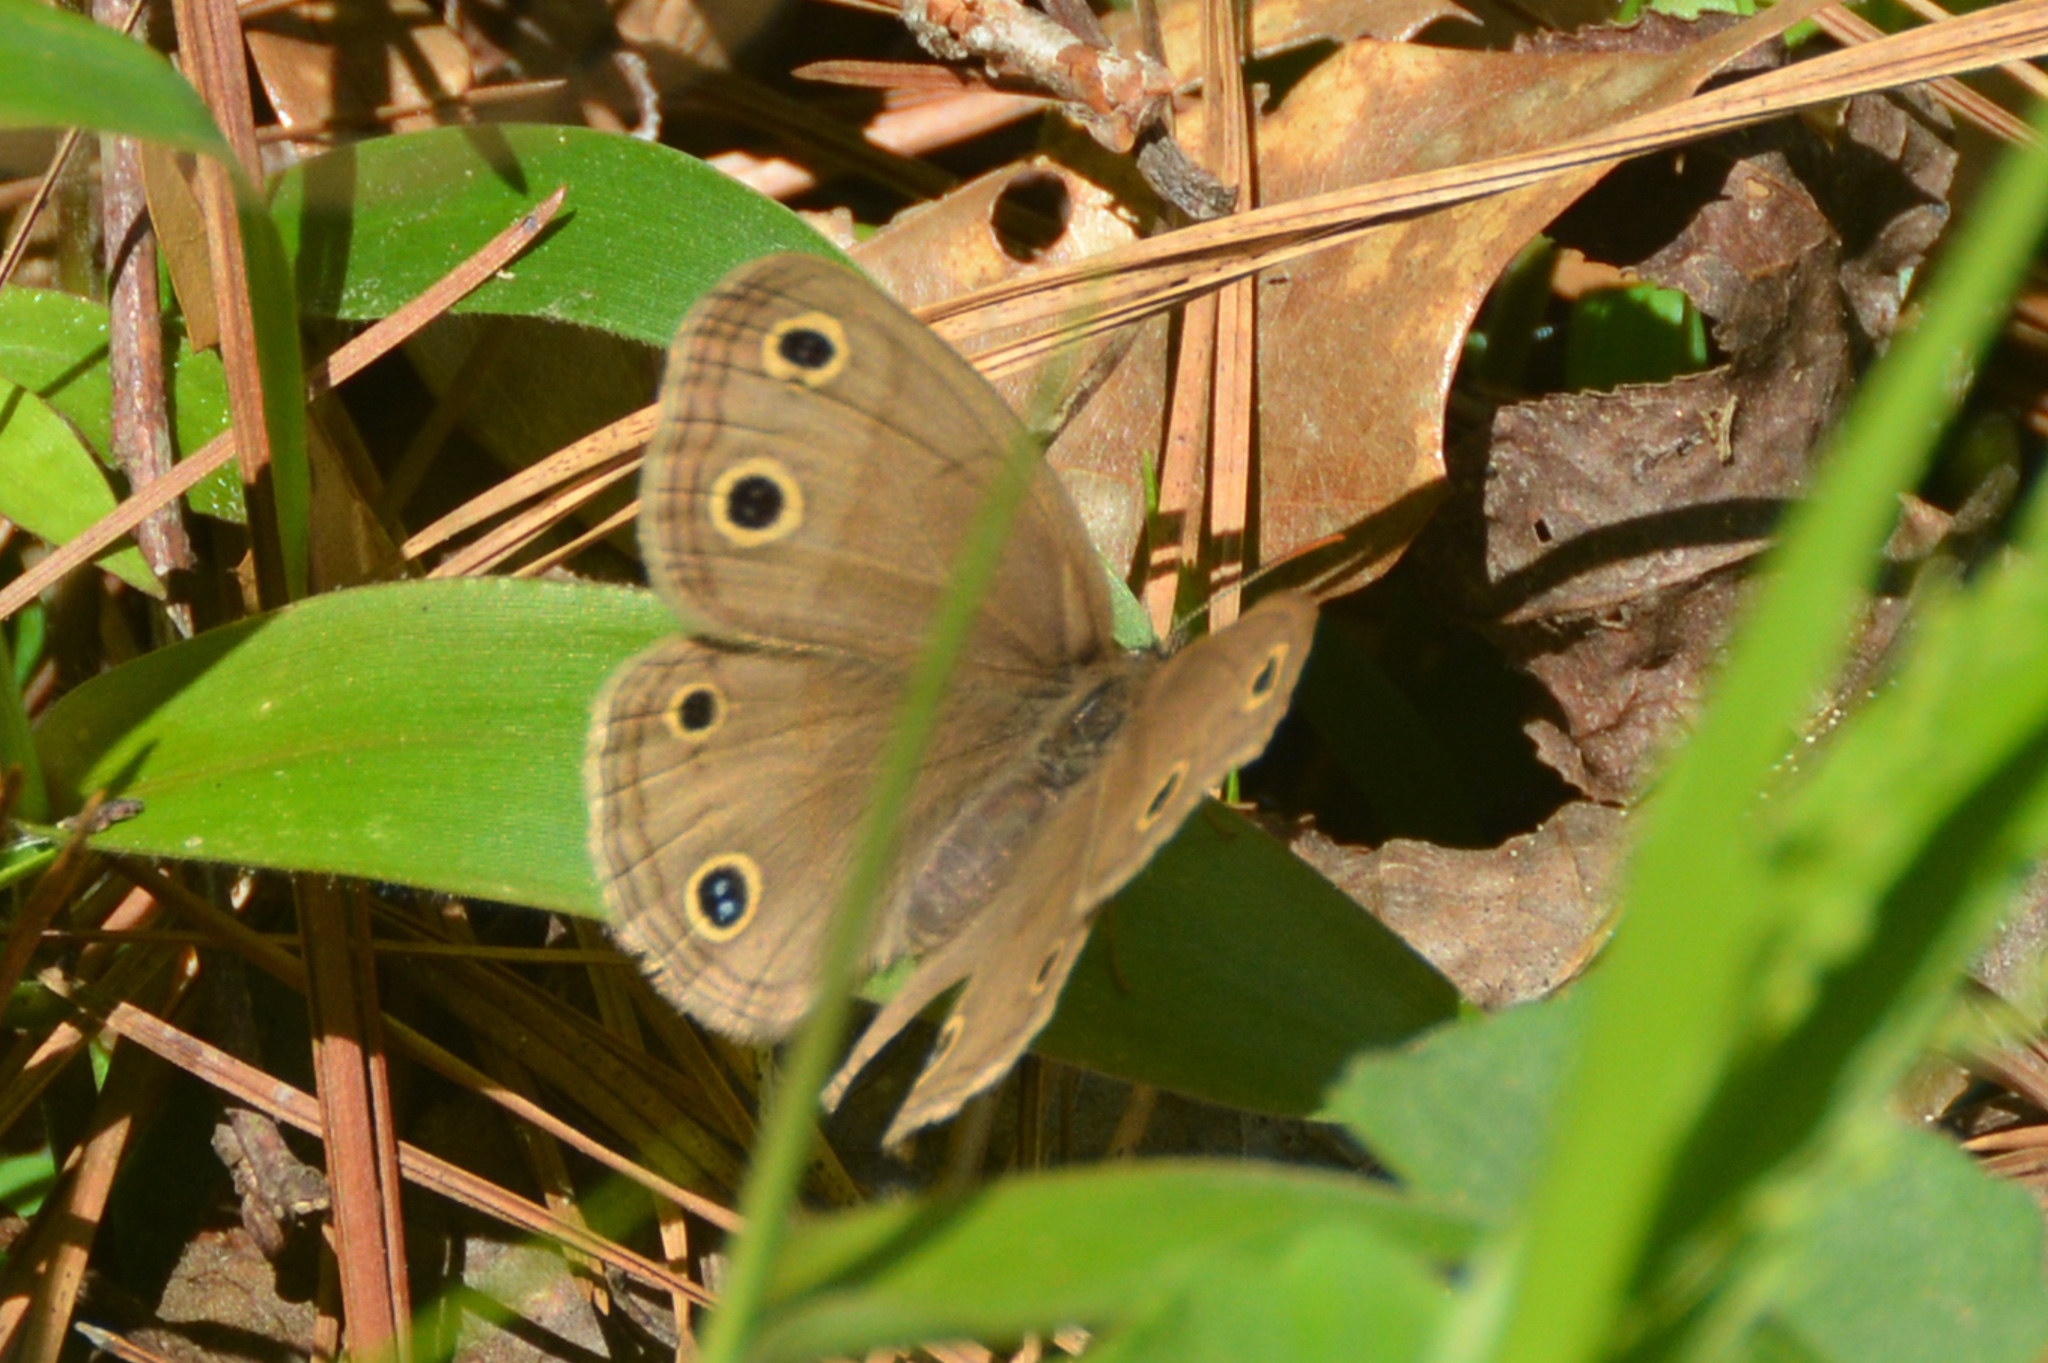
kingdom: Animalia
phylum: Arthropoda
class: Insecta
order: Lepidoptera
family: Nymphalidae
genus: Euptychia
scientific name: Euptychia cymela
